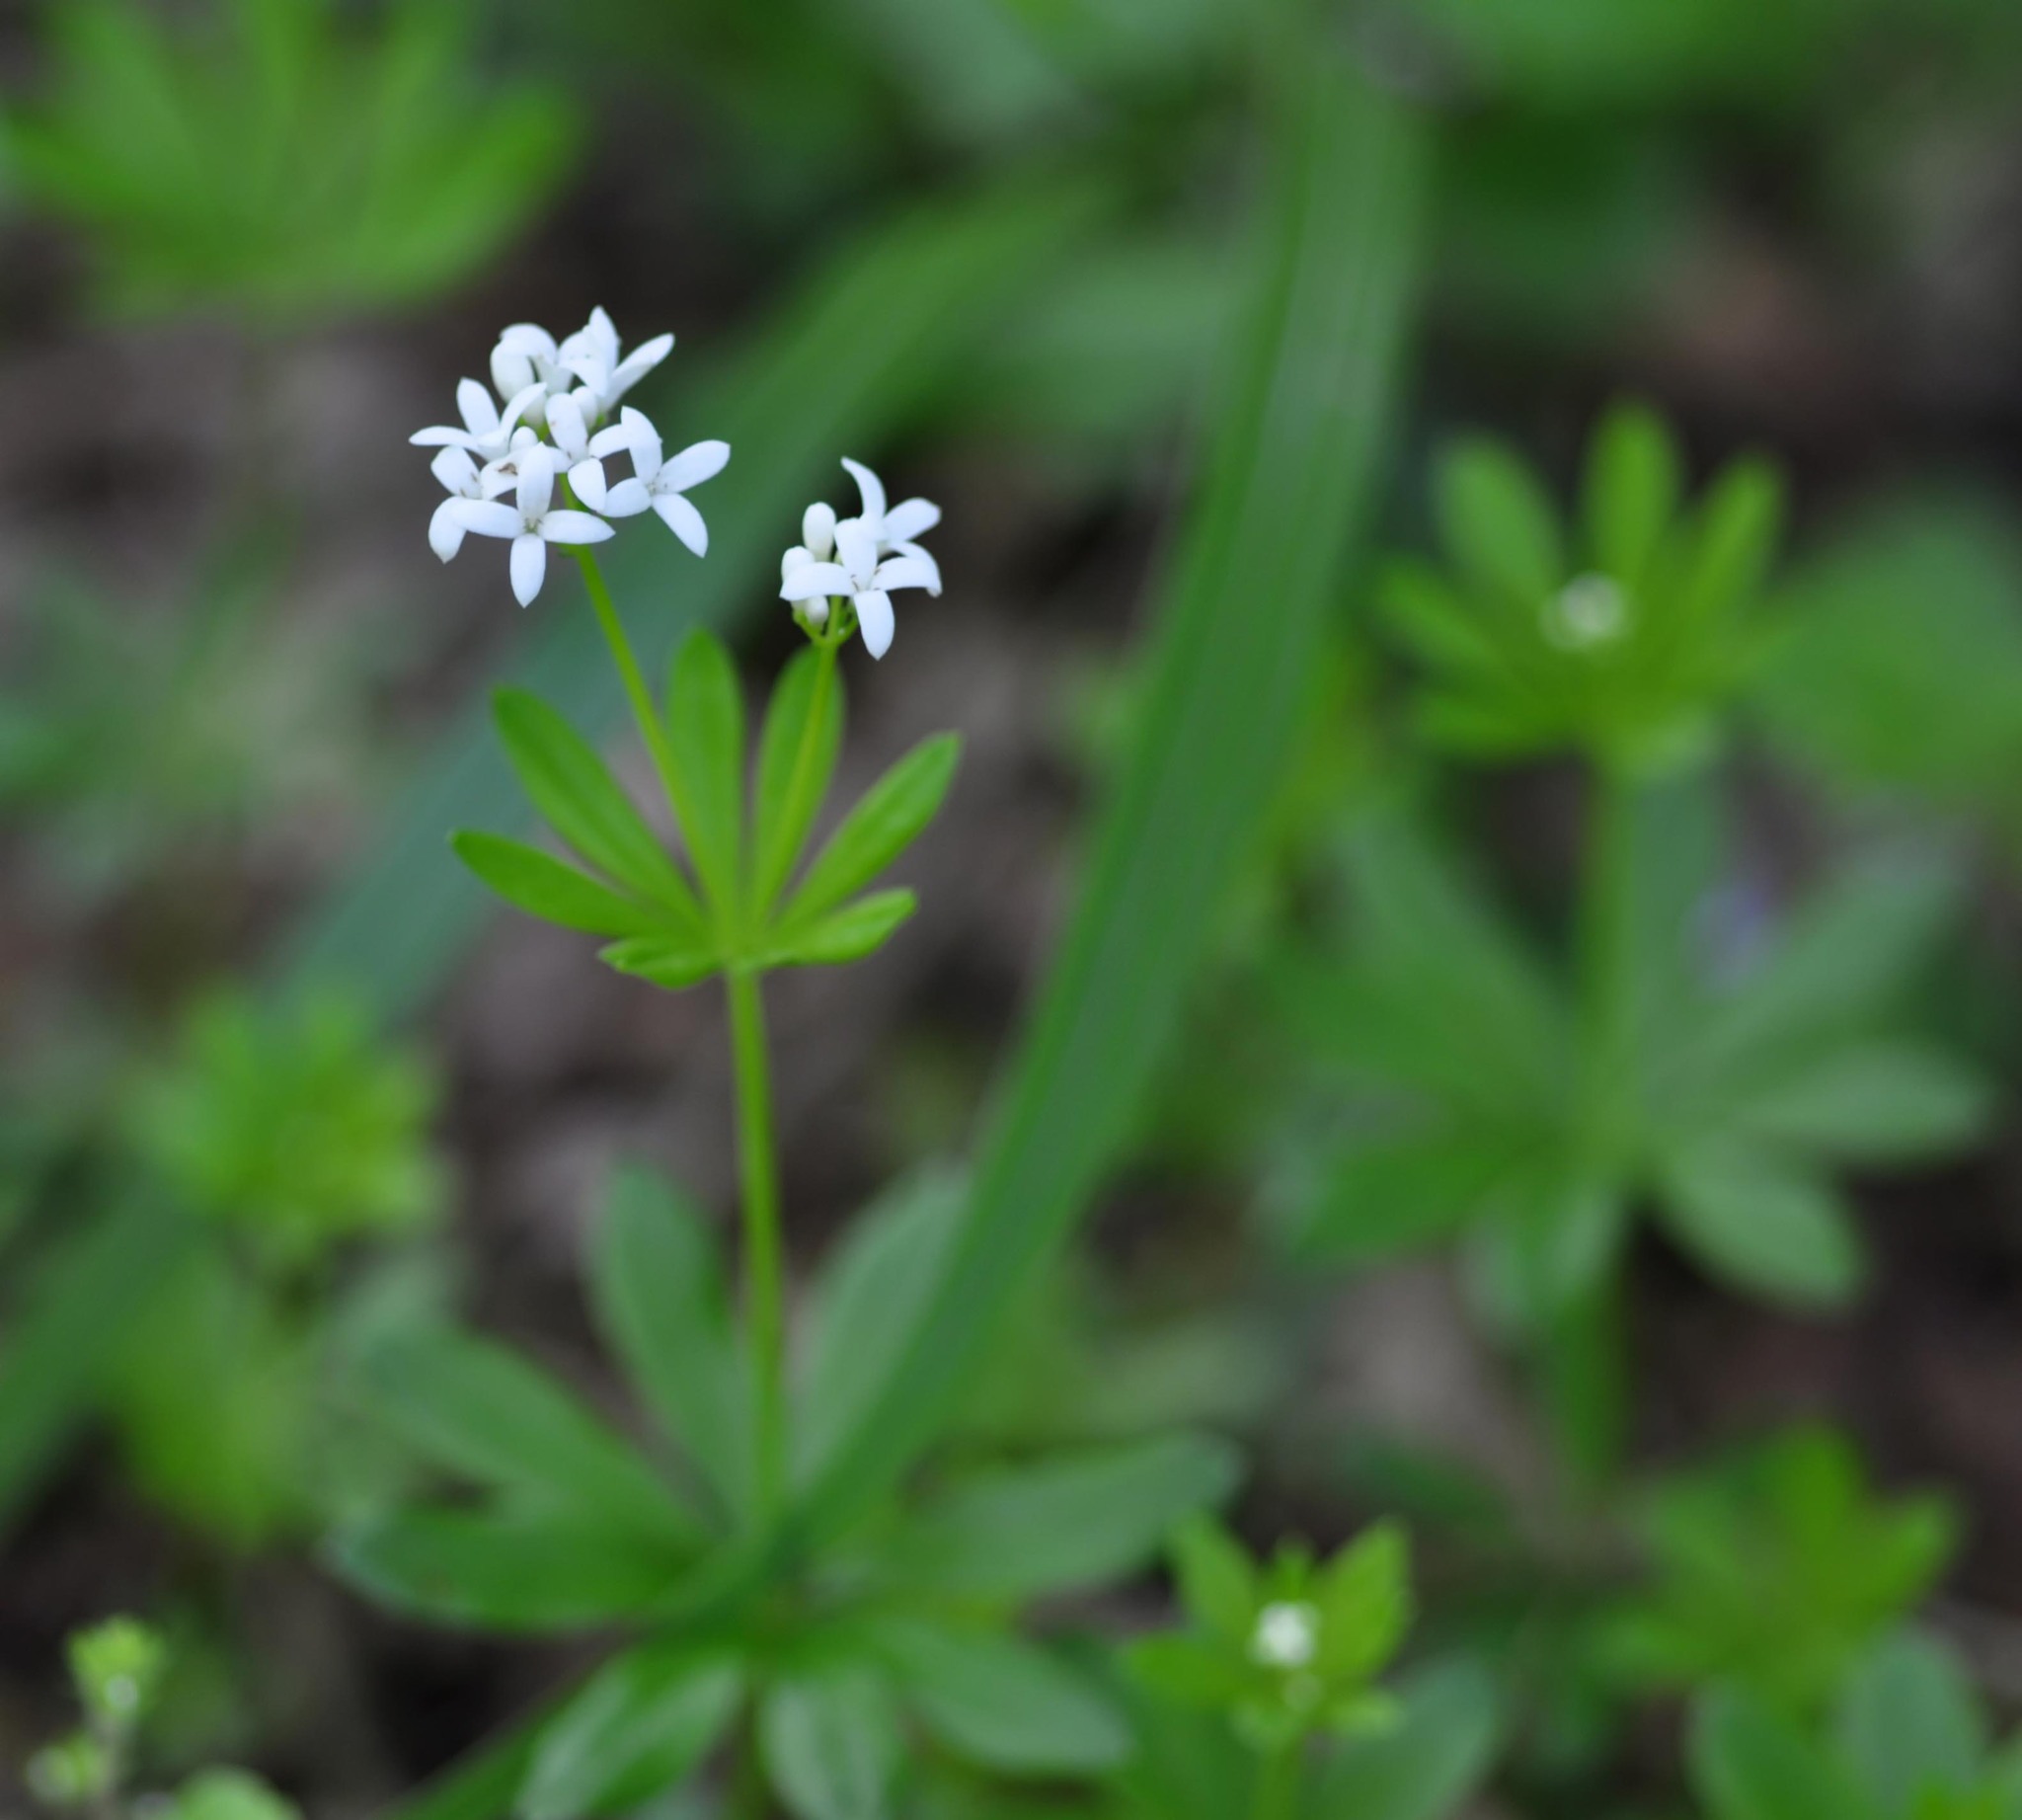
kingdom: Plantae
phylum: Tracheophyta
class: Magnoliopsida
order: Gentianales
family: Rubiaceae
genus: Galium
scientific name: Galium odoratum
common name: Sweet woodruff
